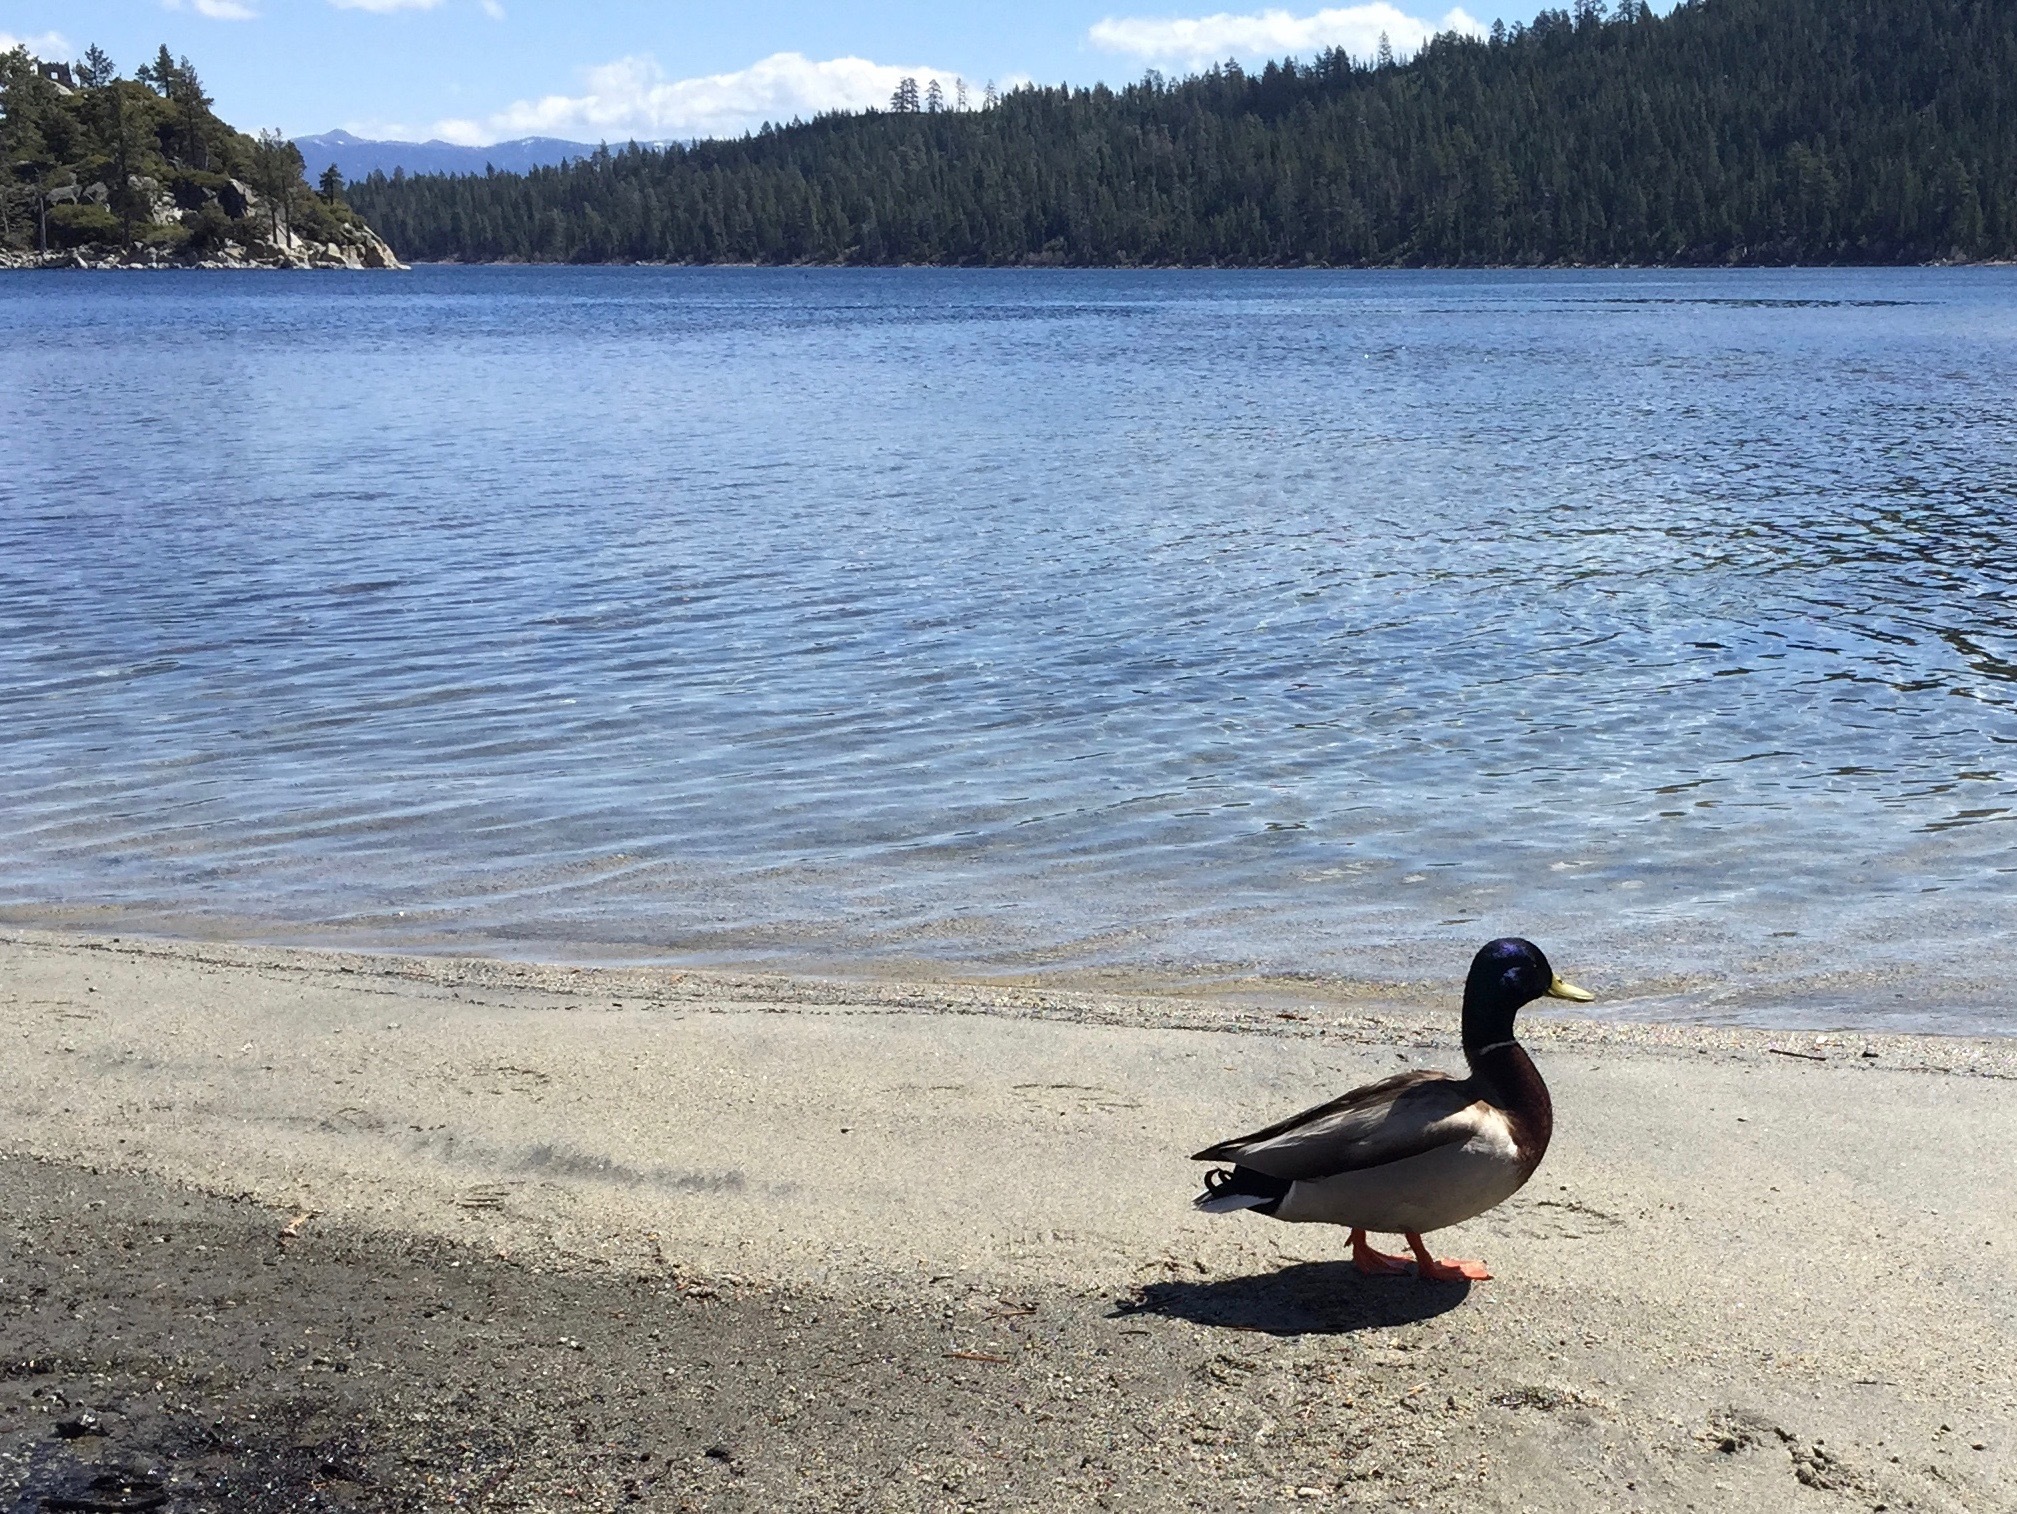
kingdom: Animalia
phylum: Chordata
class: Aves
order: Anseriformes
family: Anatidae
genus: Anas
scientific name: Anas platyrhynchos
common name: Mallard
